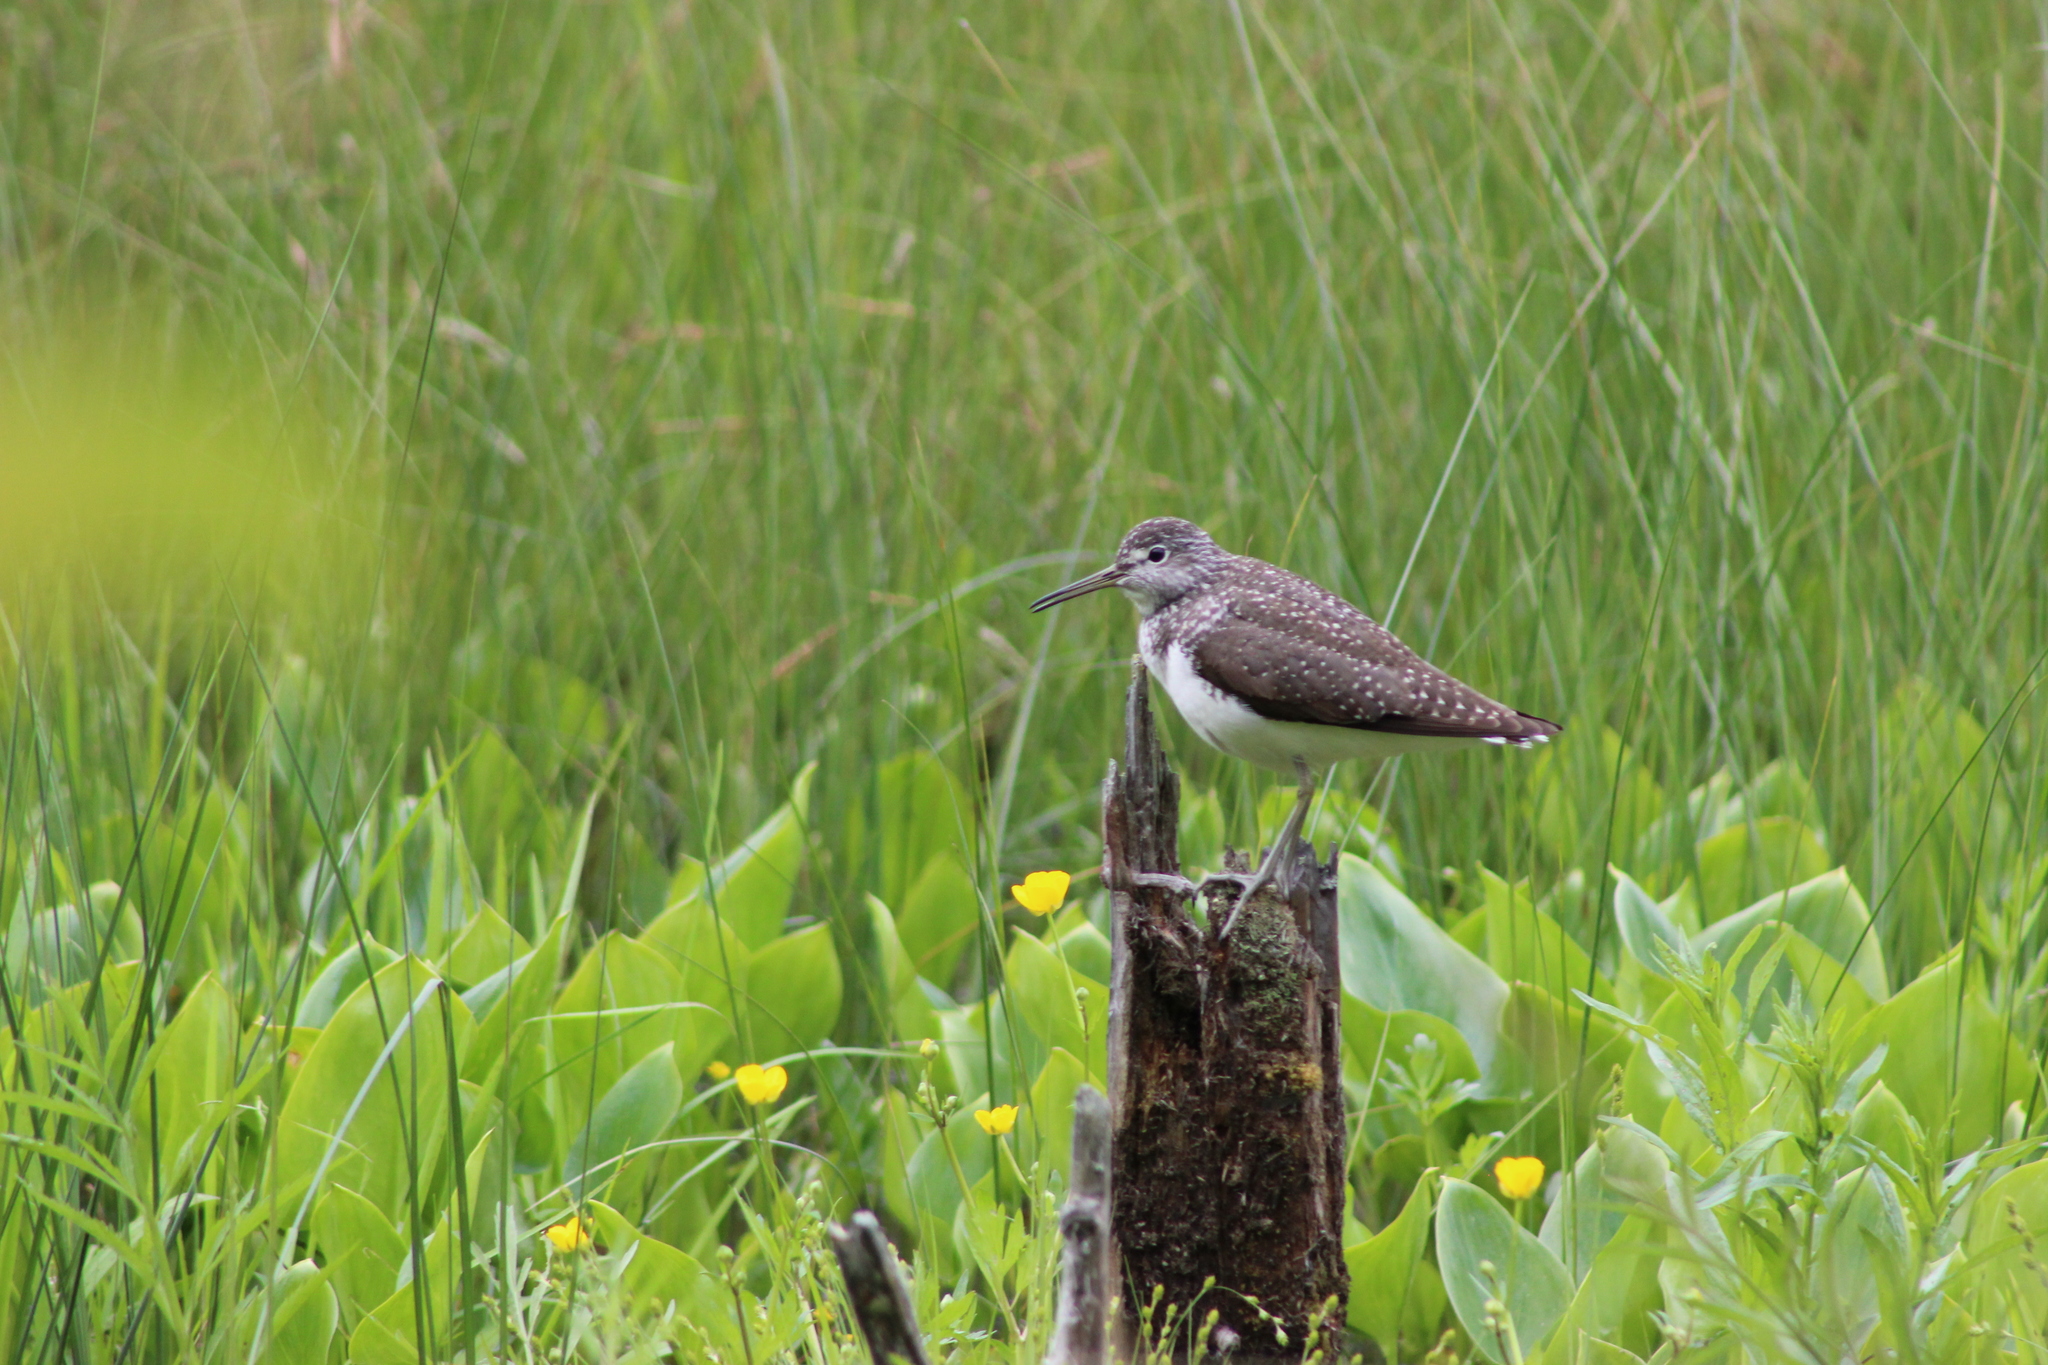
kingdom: Animalia
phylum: Chordata
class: Aves
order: Charadriiformes
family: Scolopacidae
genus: Tringa
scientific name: Tringa ochropus
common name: Green sandpiper
